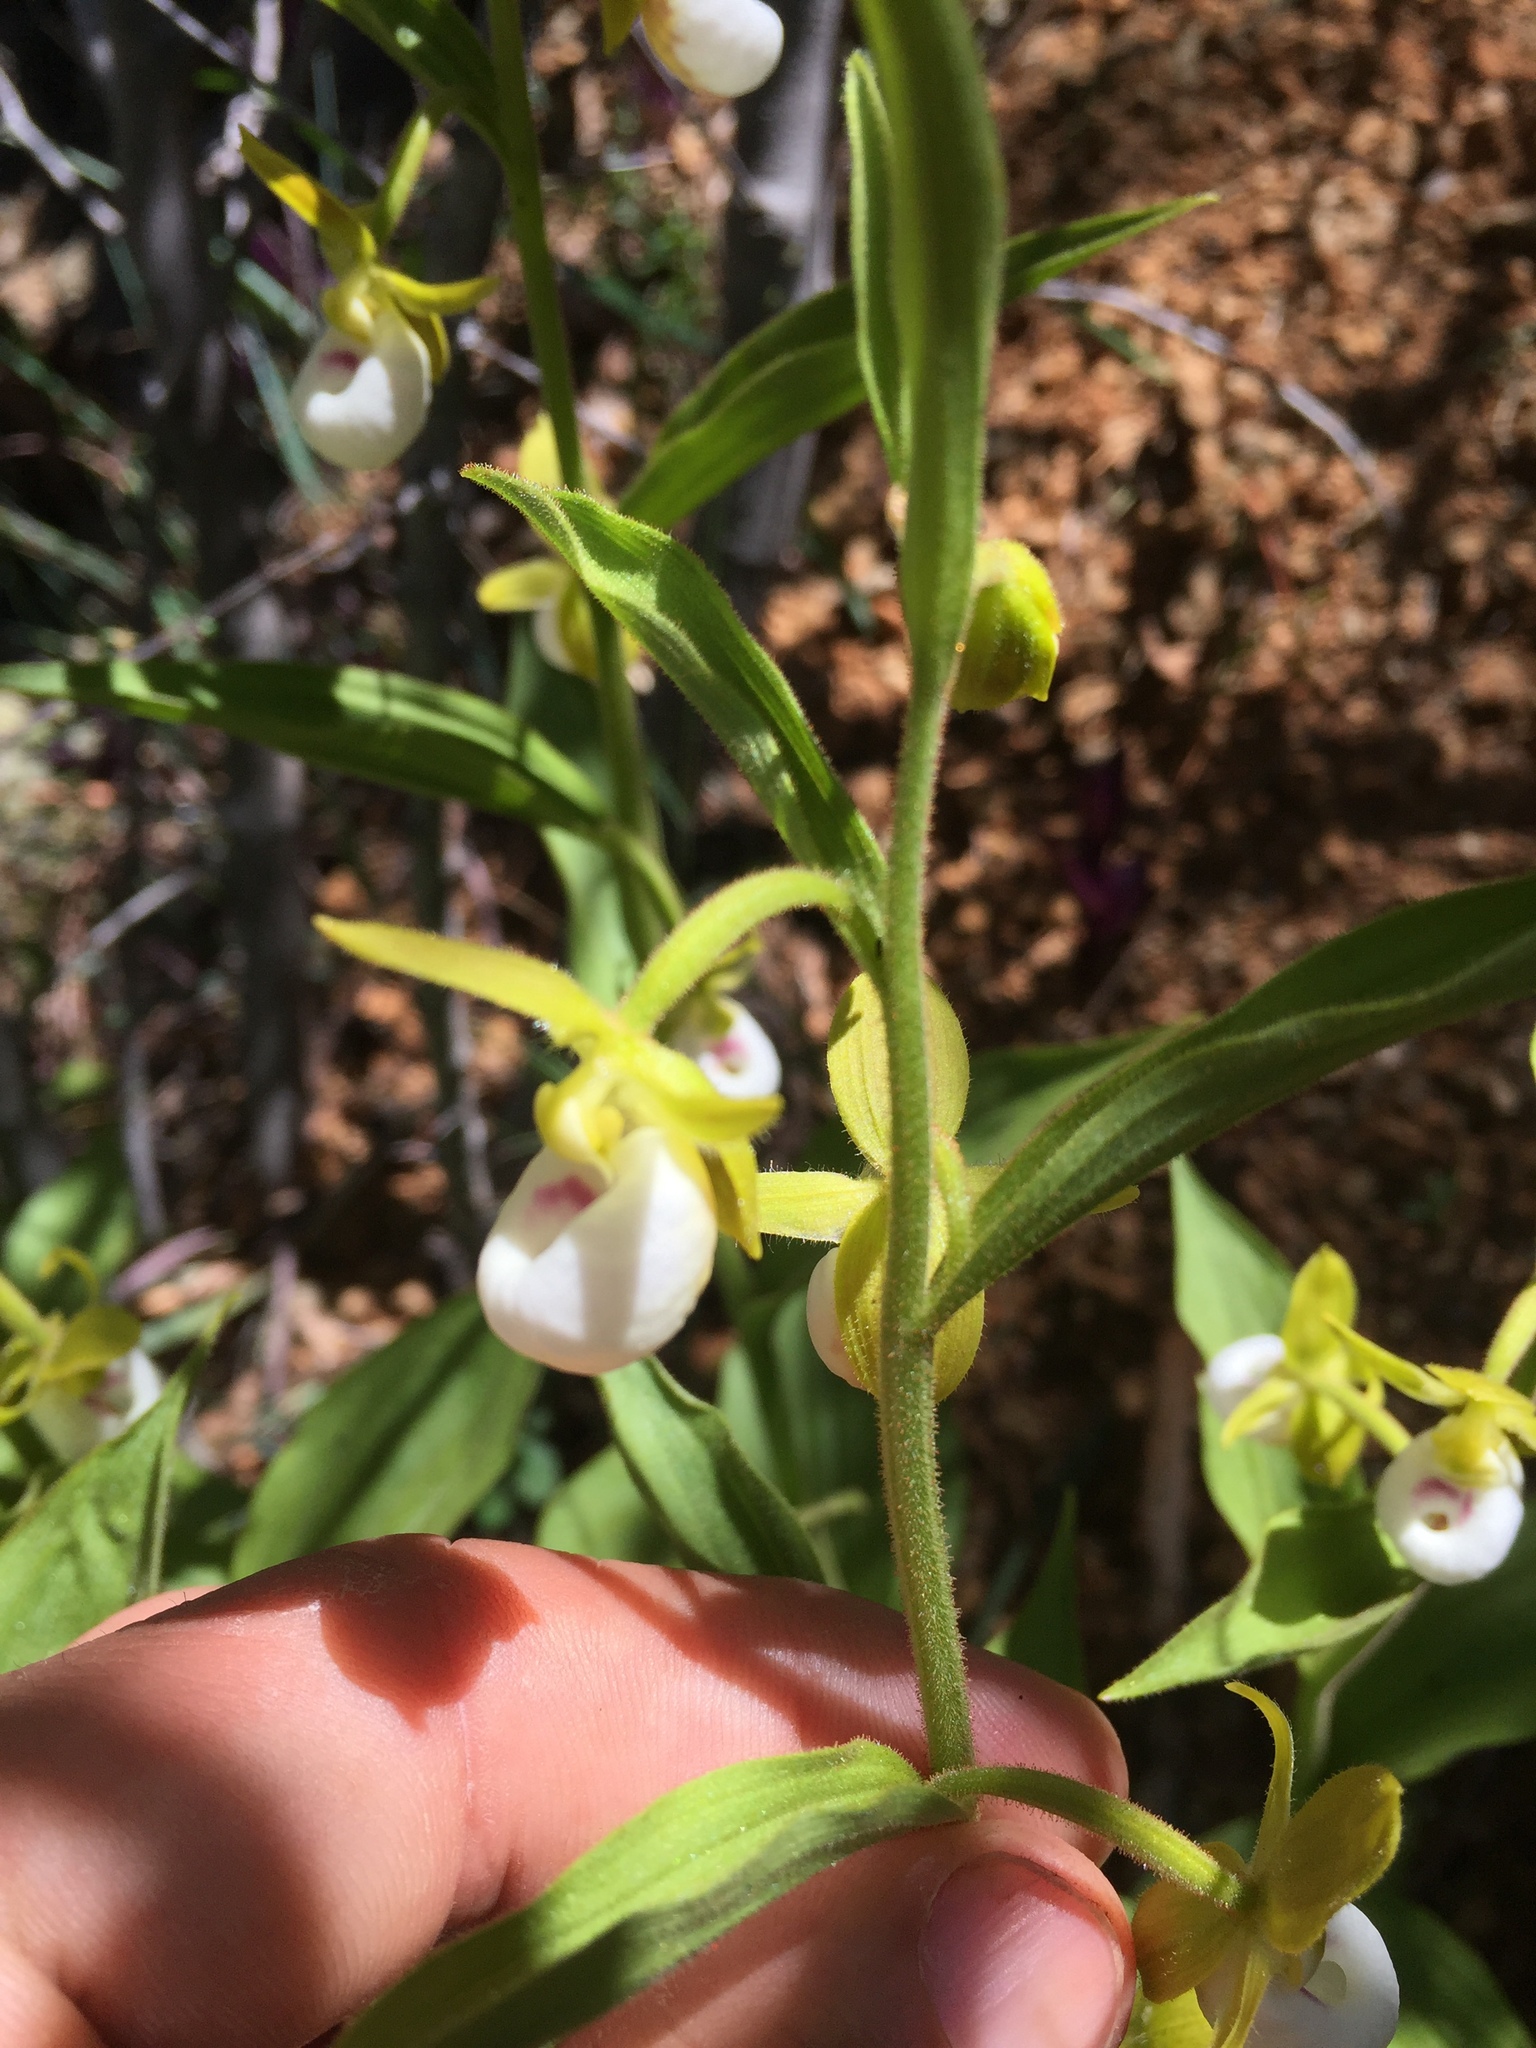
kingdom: Plantae
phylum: Tracheophyta
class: Liliopsida
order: Asparagales
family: Orchidaceae
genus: Cypripedium
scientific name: Cypripedium californicum
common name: California lady's slipper
